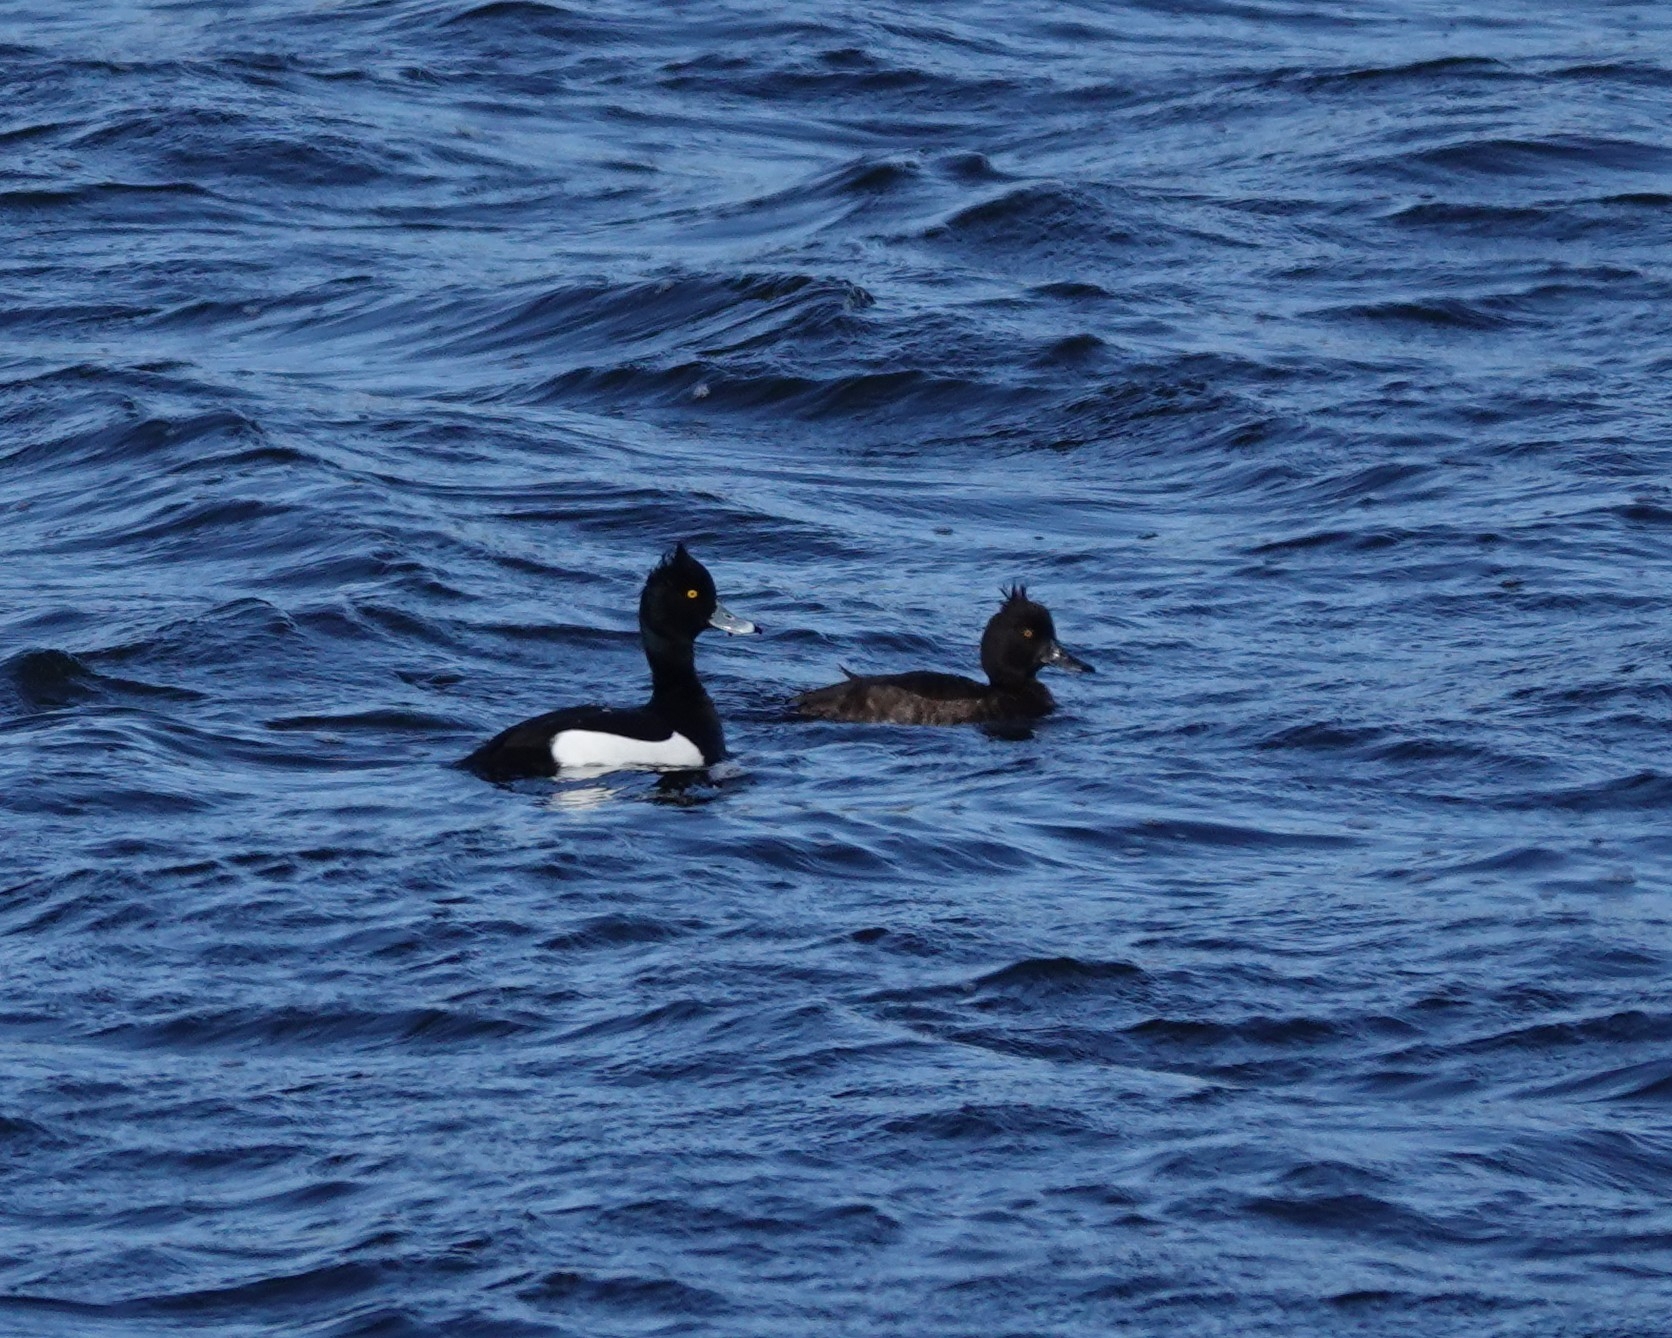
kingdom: Animalia
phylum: Chordata
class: Aves
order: Anseriformes
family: Anatidae
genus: Aythya
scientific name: Aythya fuligula
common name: Tufted duck
